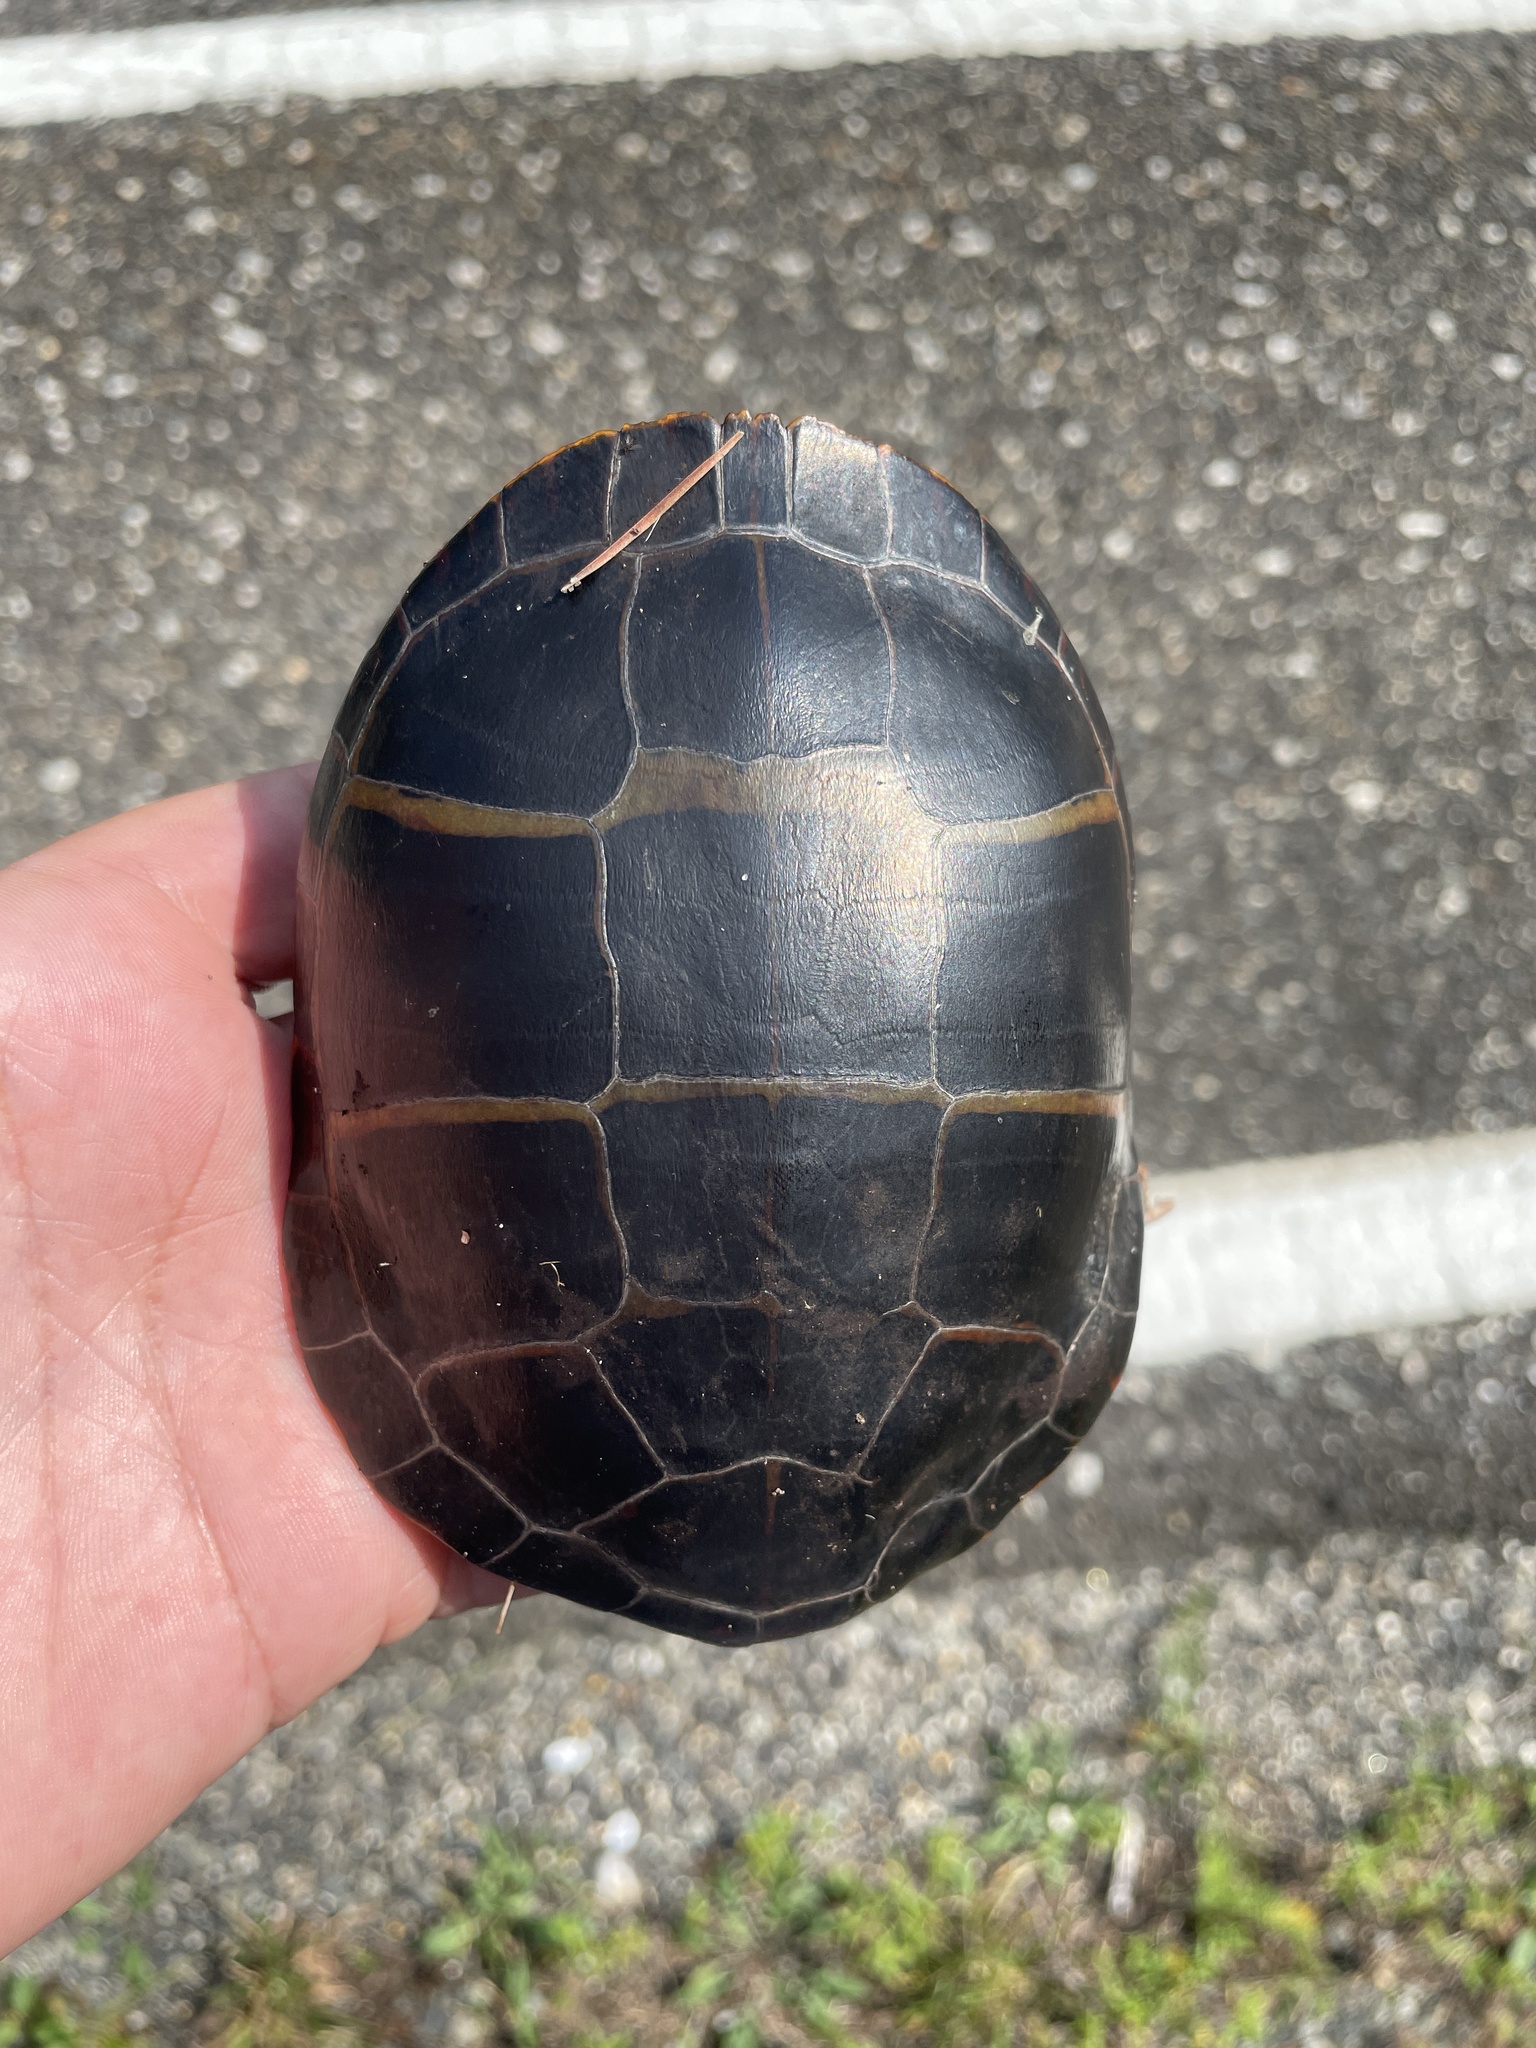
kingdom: Animalia
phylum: Chordata
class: Testudines
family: Emydidae
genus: Chrysemys
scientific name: Chrysemys picta
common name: Painted turtle
